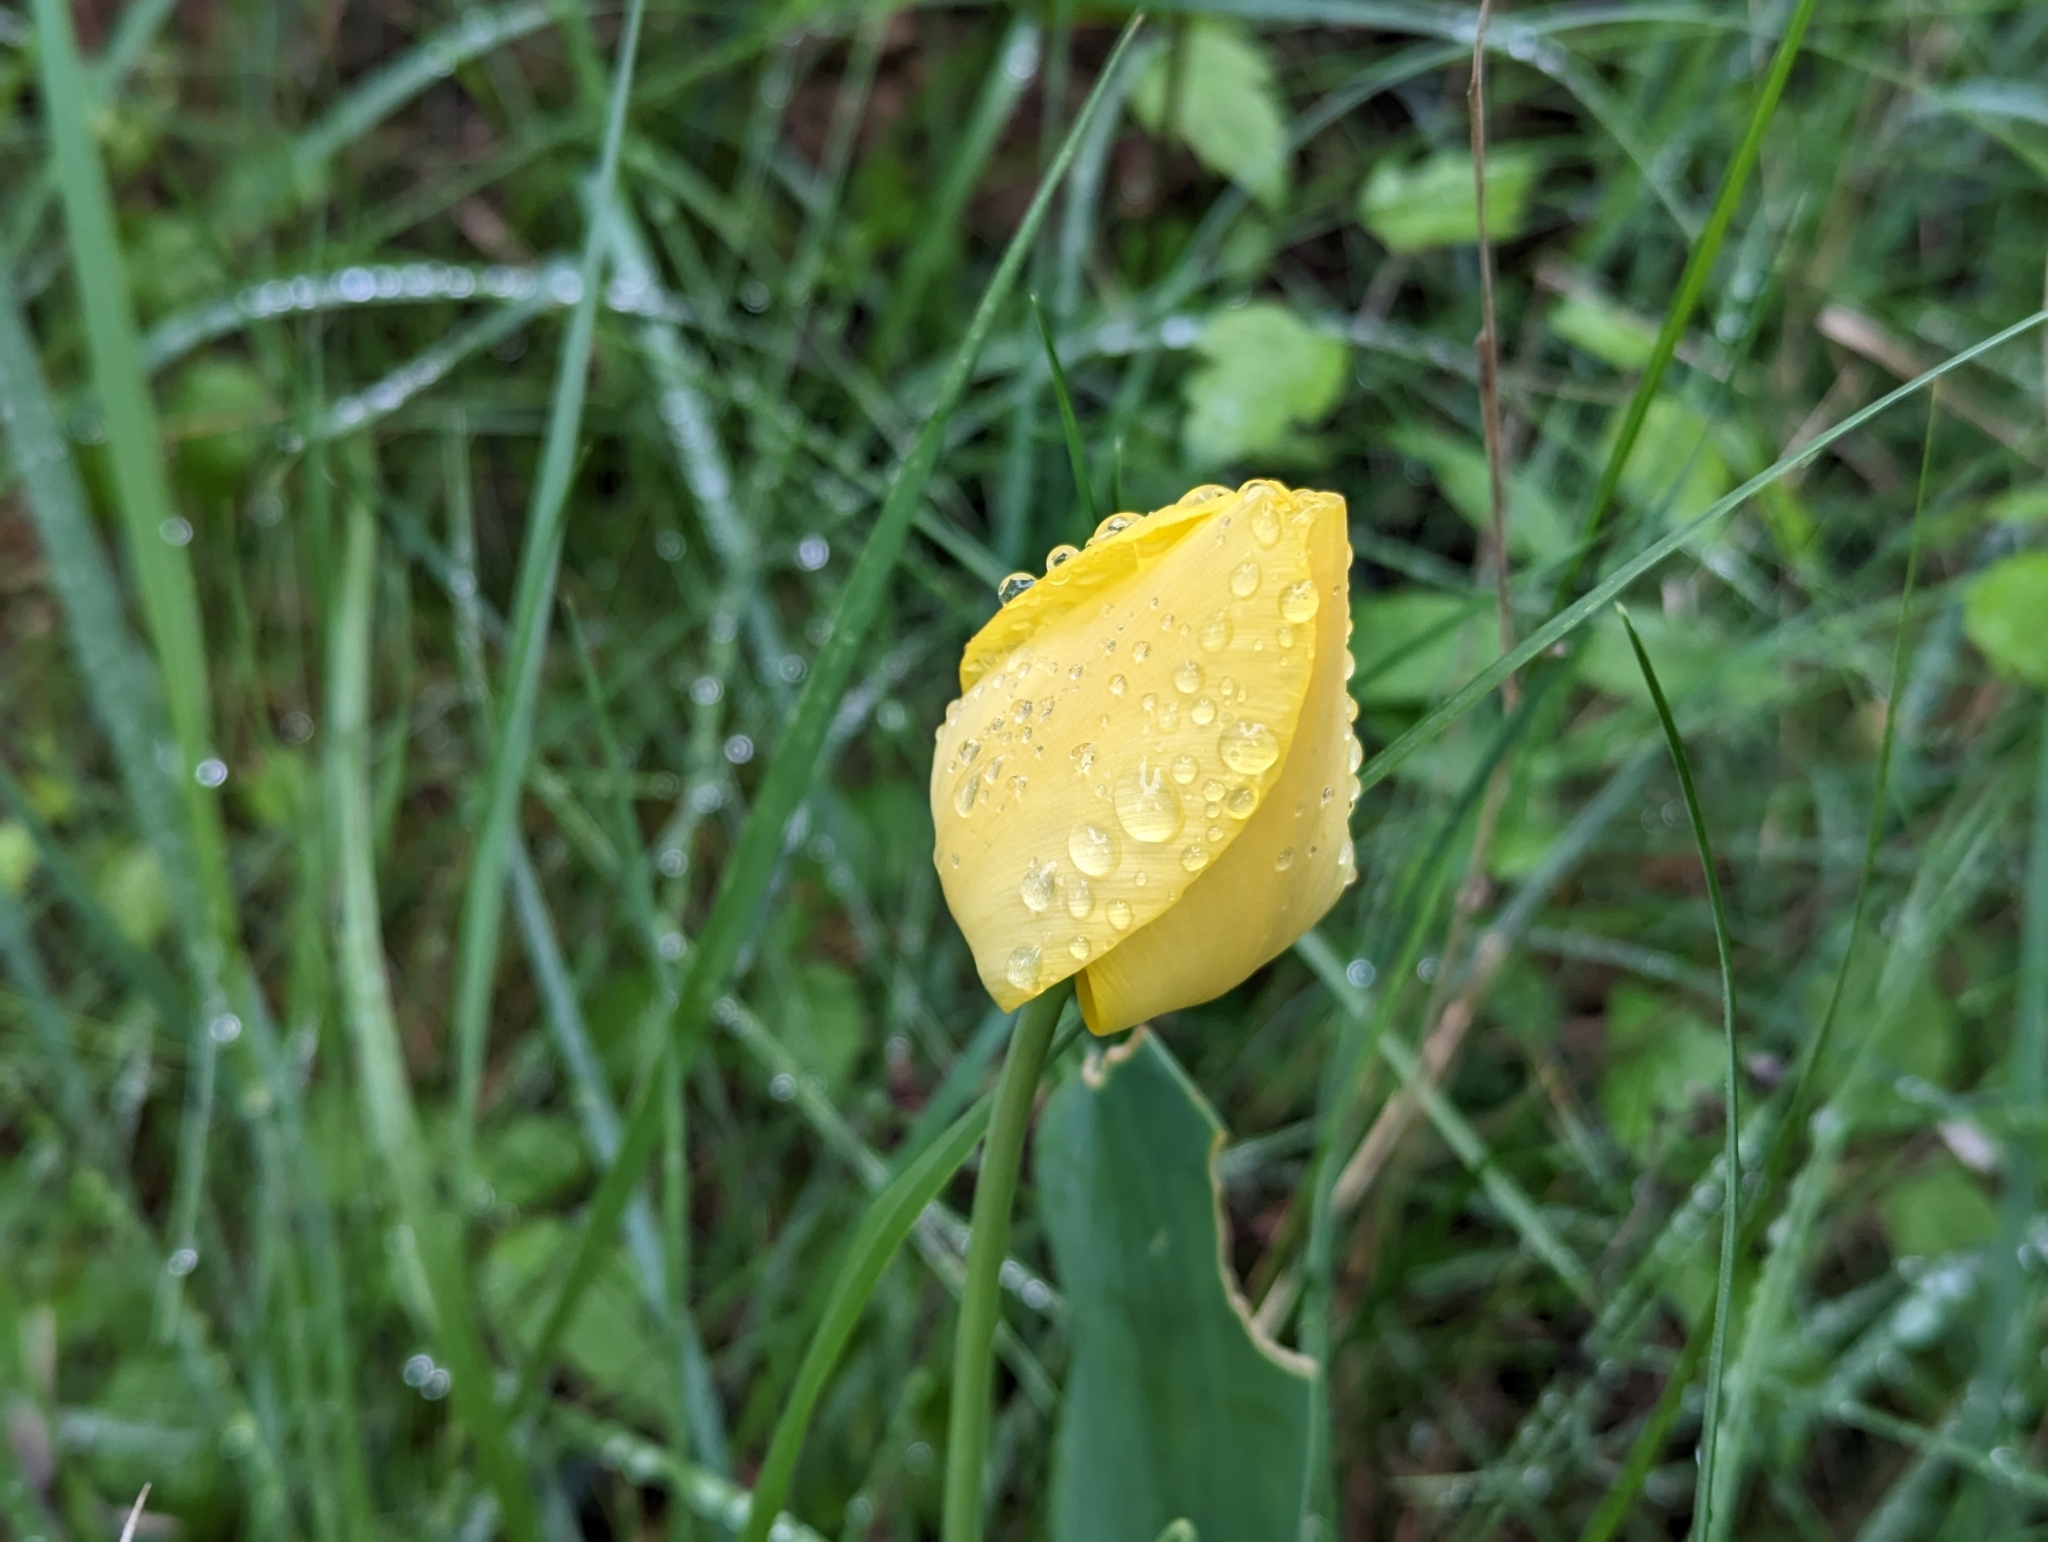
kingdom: Plantae
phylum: Tracheophyta
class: Liliopsida
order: Liliales
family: Liliaceae
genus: Tulipa
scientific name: Tulipa gesneriana
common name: Garden tulip
